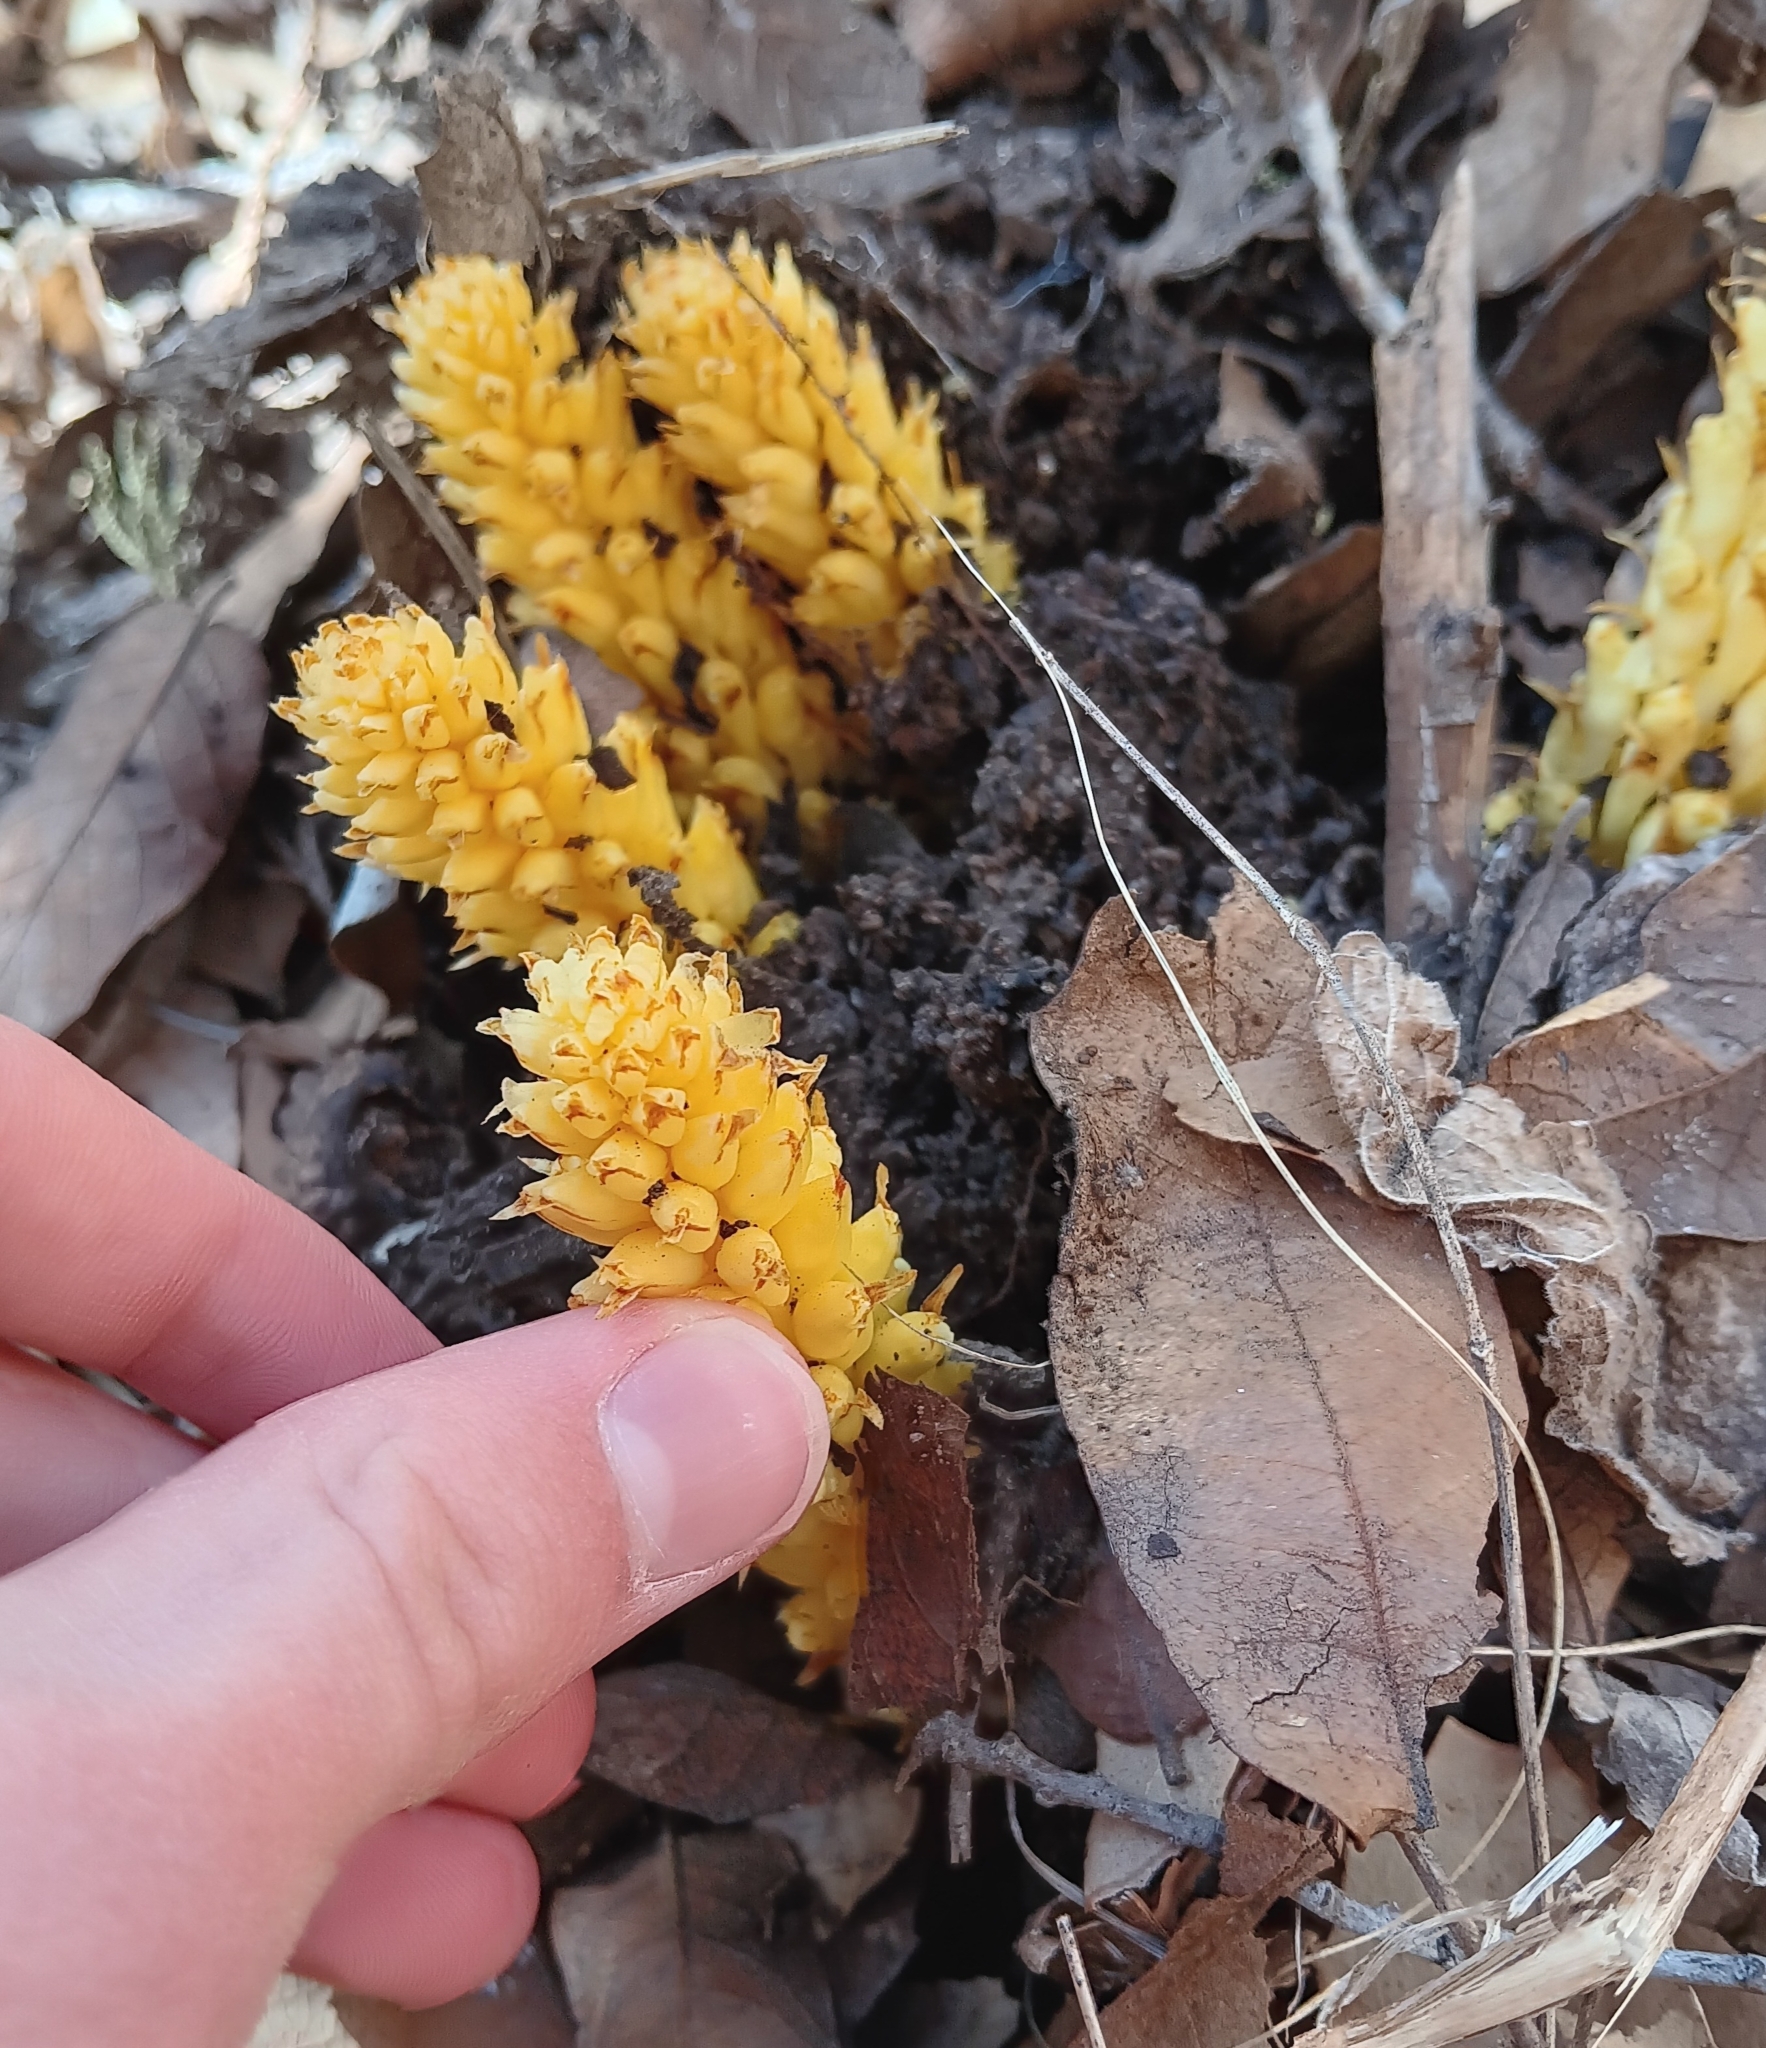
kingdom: Plantae
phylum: Tracheophyta
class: Magnoliopsida
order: Lamiales
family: Orobanchaceae
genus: Conopholis
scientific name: Conopholis alpina
